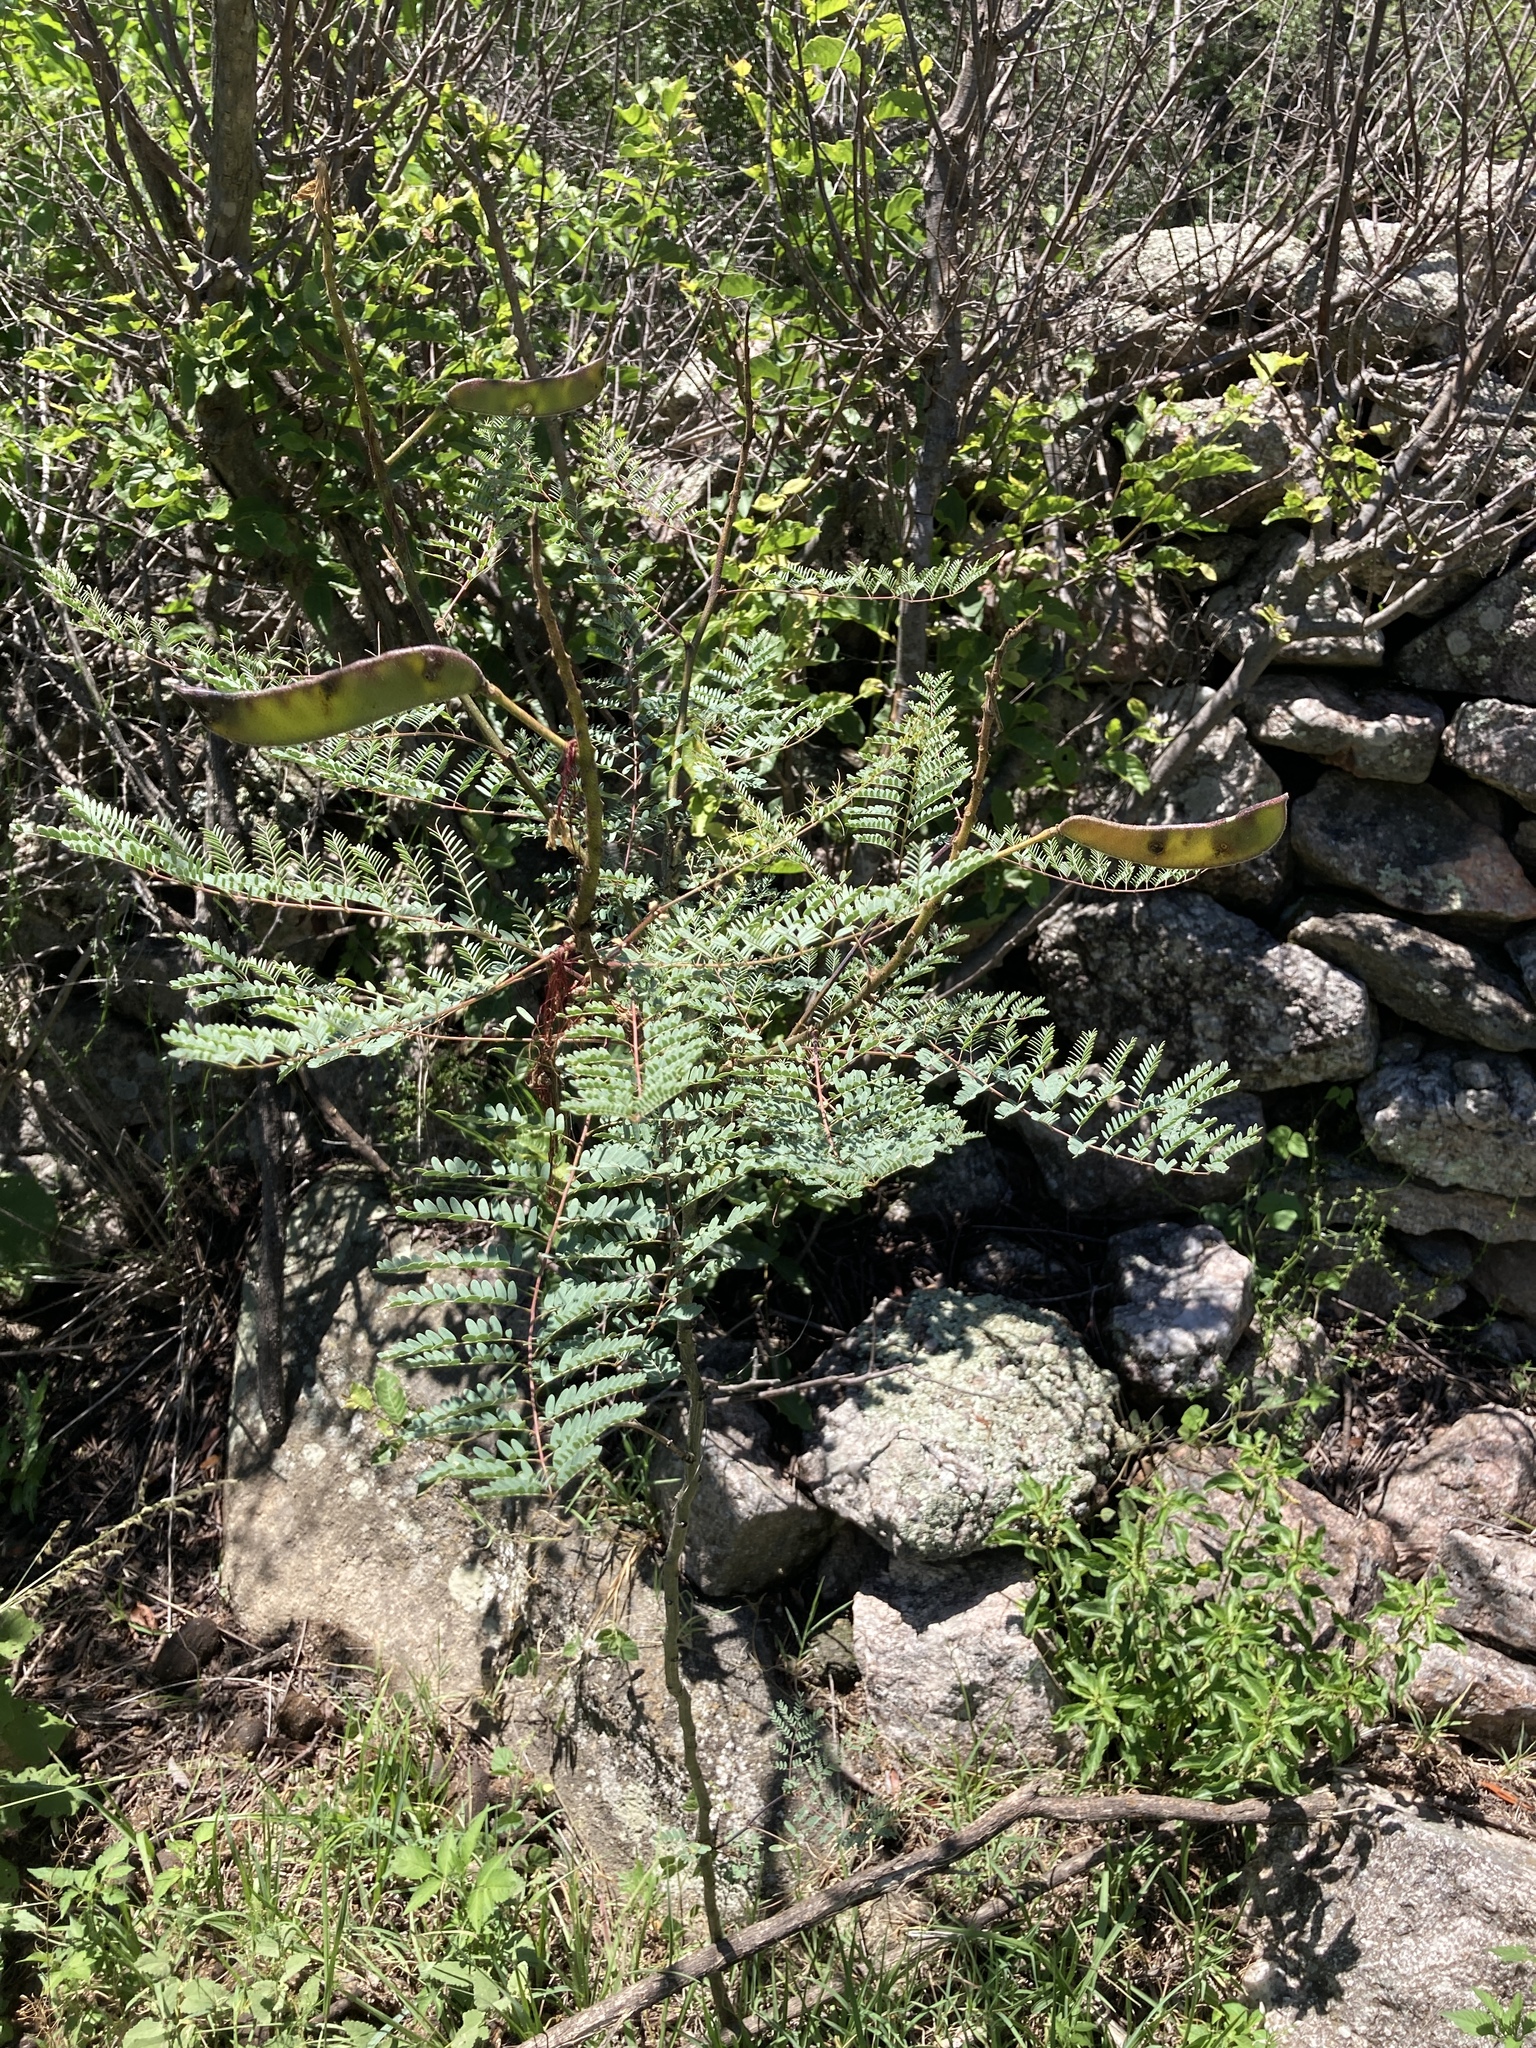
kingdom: Plantae
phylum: Tracheophyta
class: Magnoliopsida
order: Fabales
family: Fabaceae
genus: Erythrostemon
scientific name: Erythrostemon gilliesii
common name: Bird-of-paradise shrub
